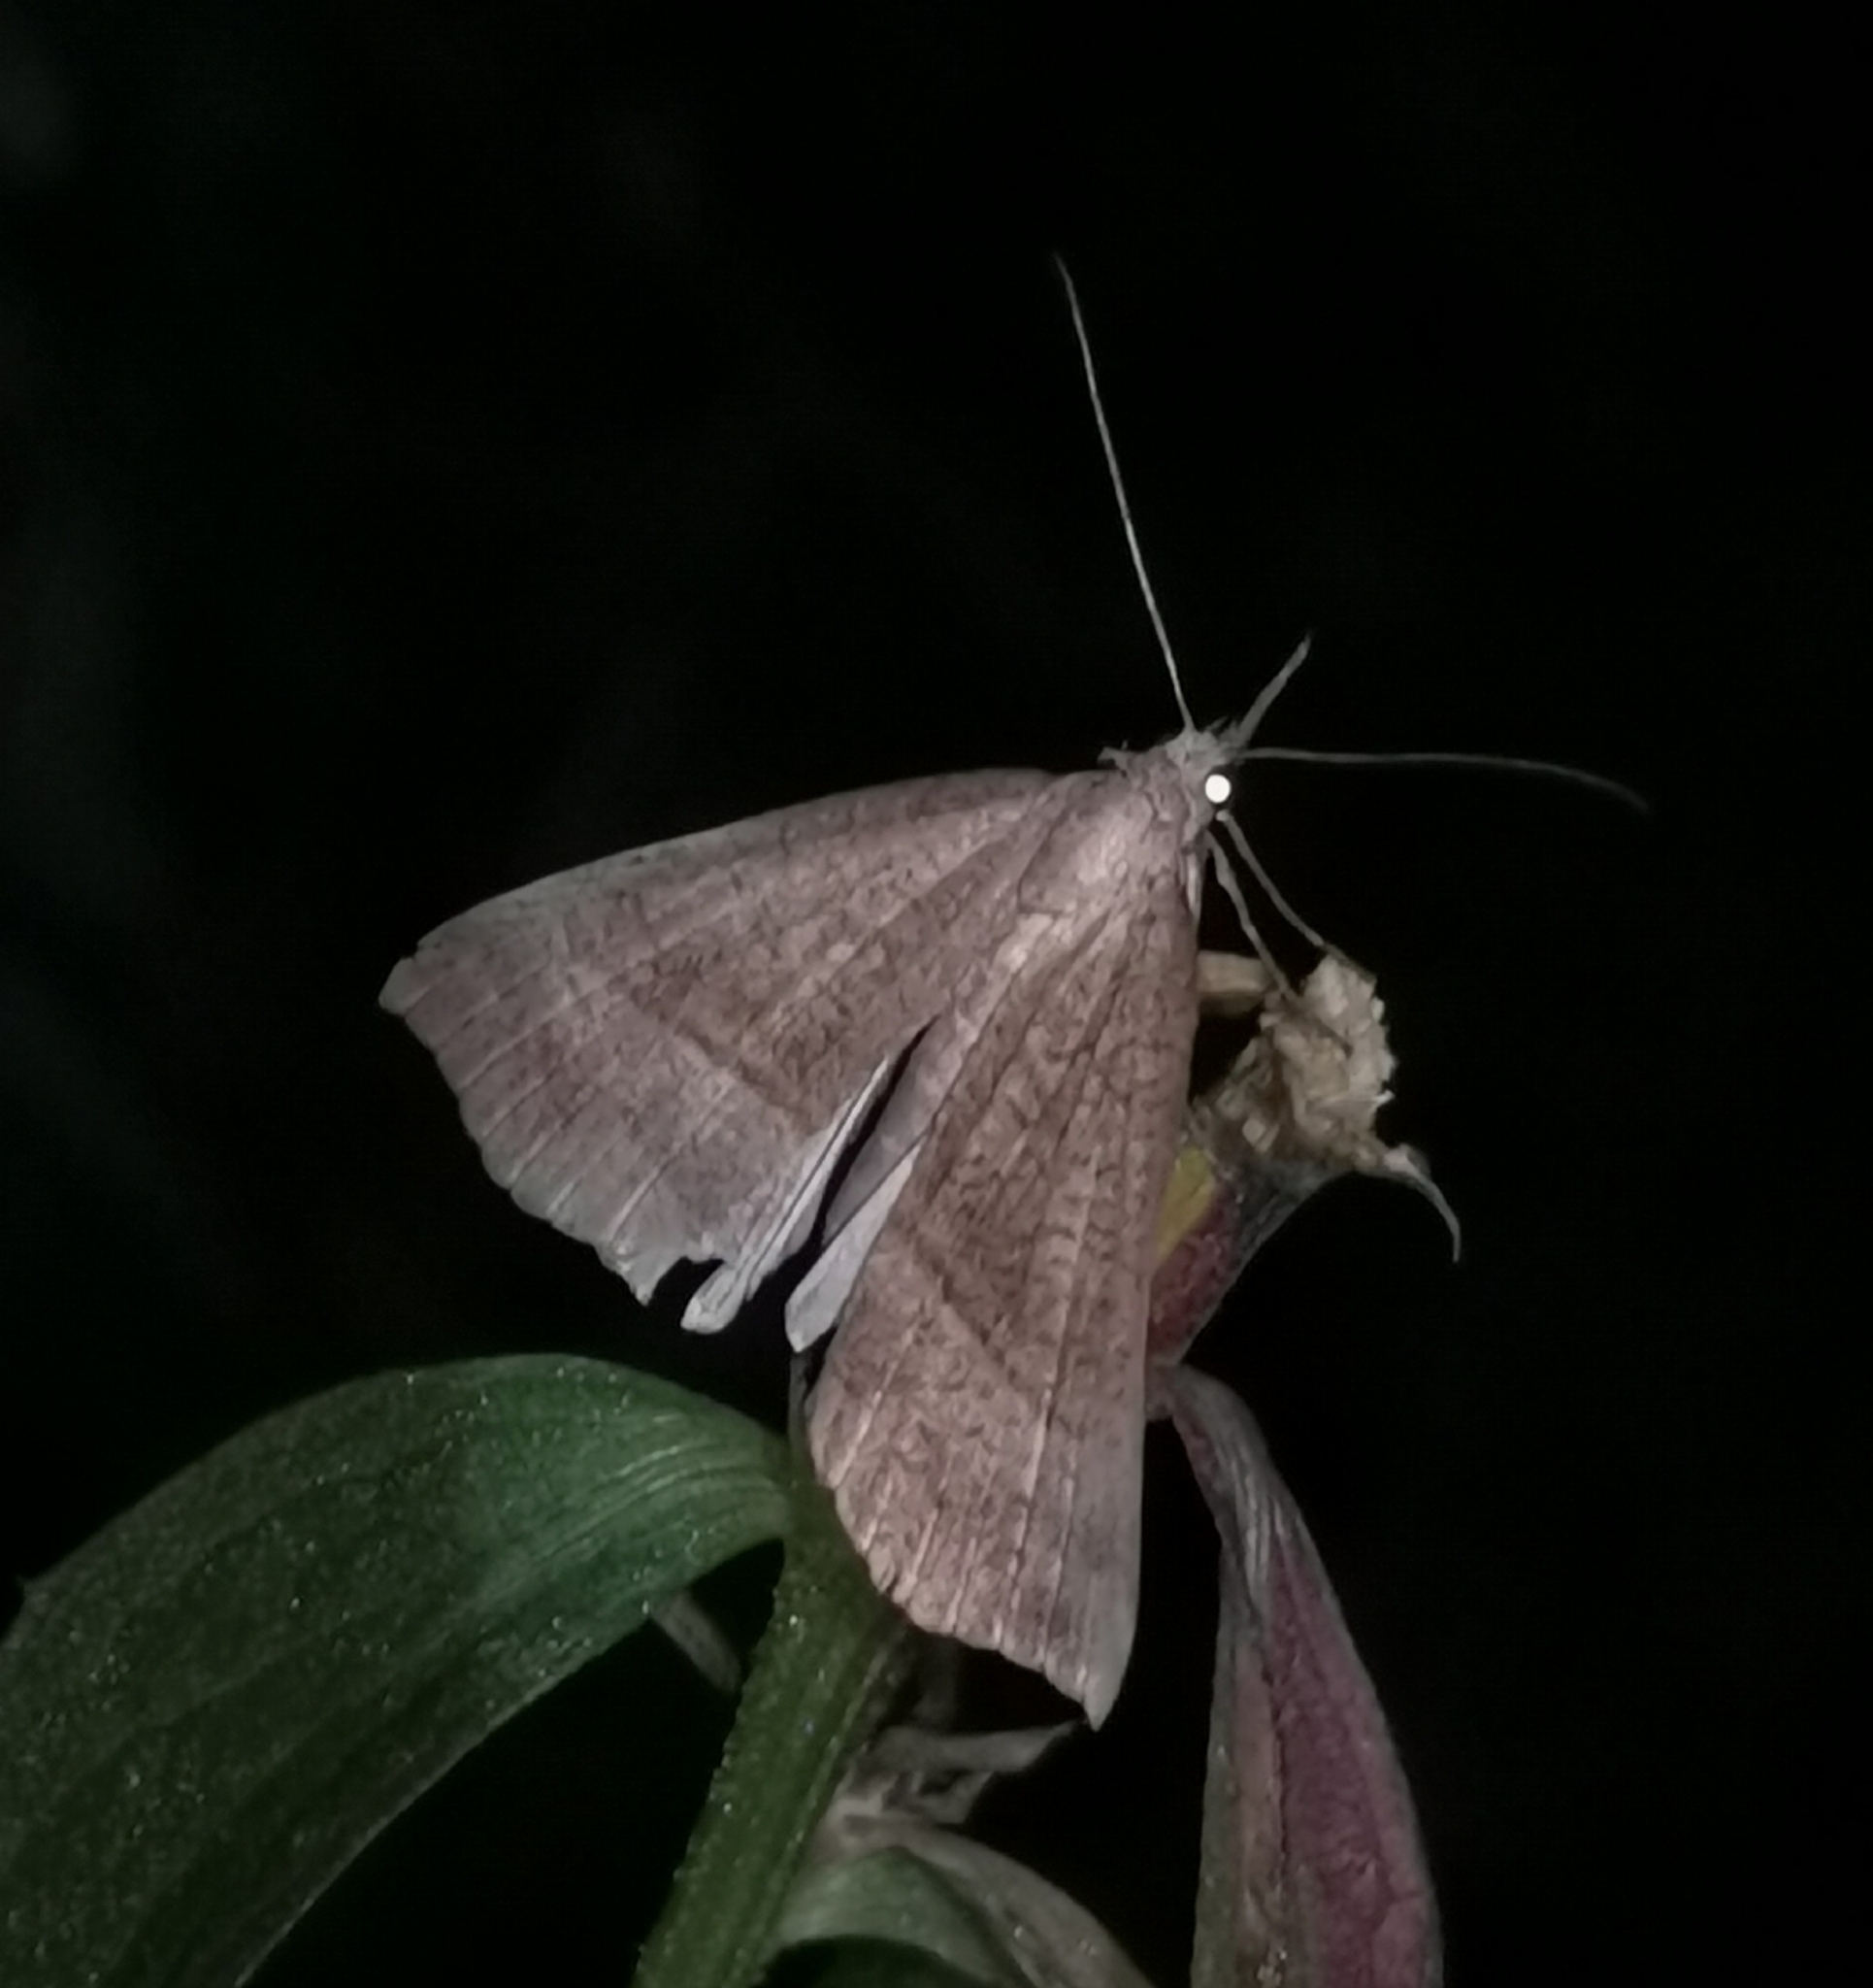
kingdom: Animalia
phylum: Arthropoda
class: Insecta
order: Lepidoptera
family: Erebidae
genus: Hypena
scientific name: Hypena proboscidalis
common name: Snout
